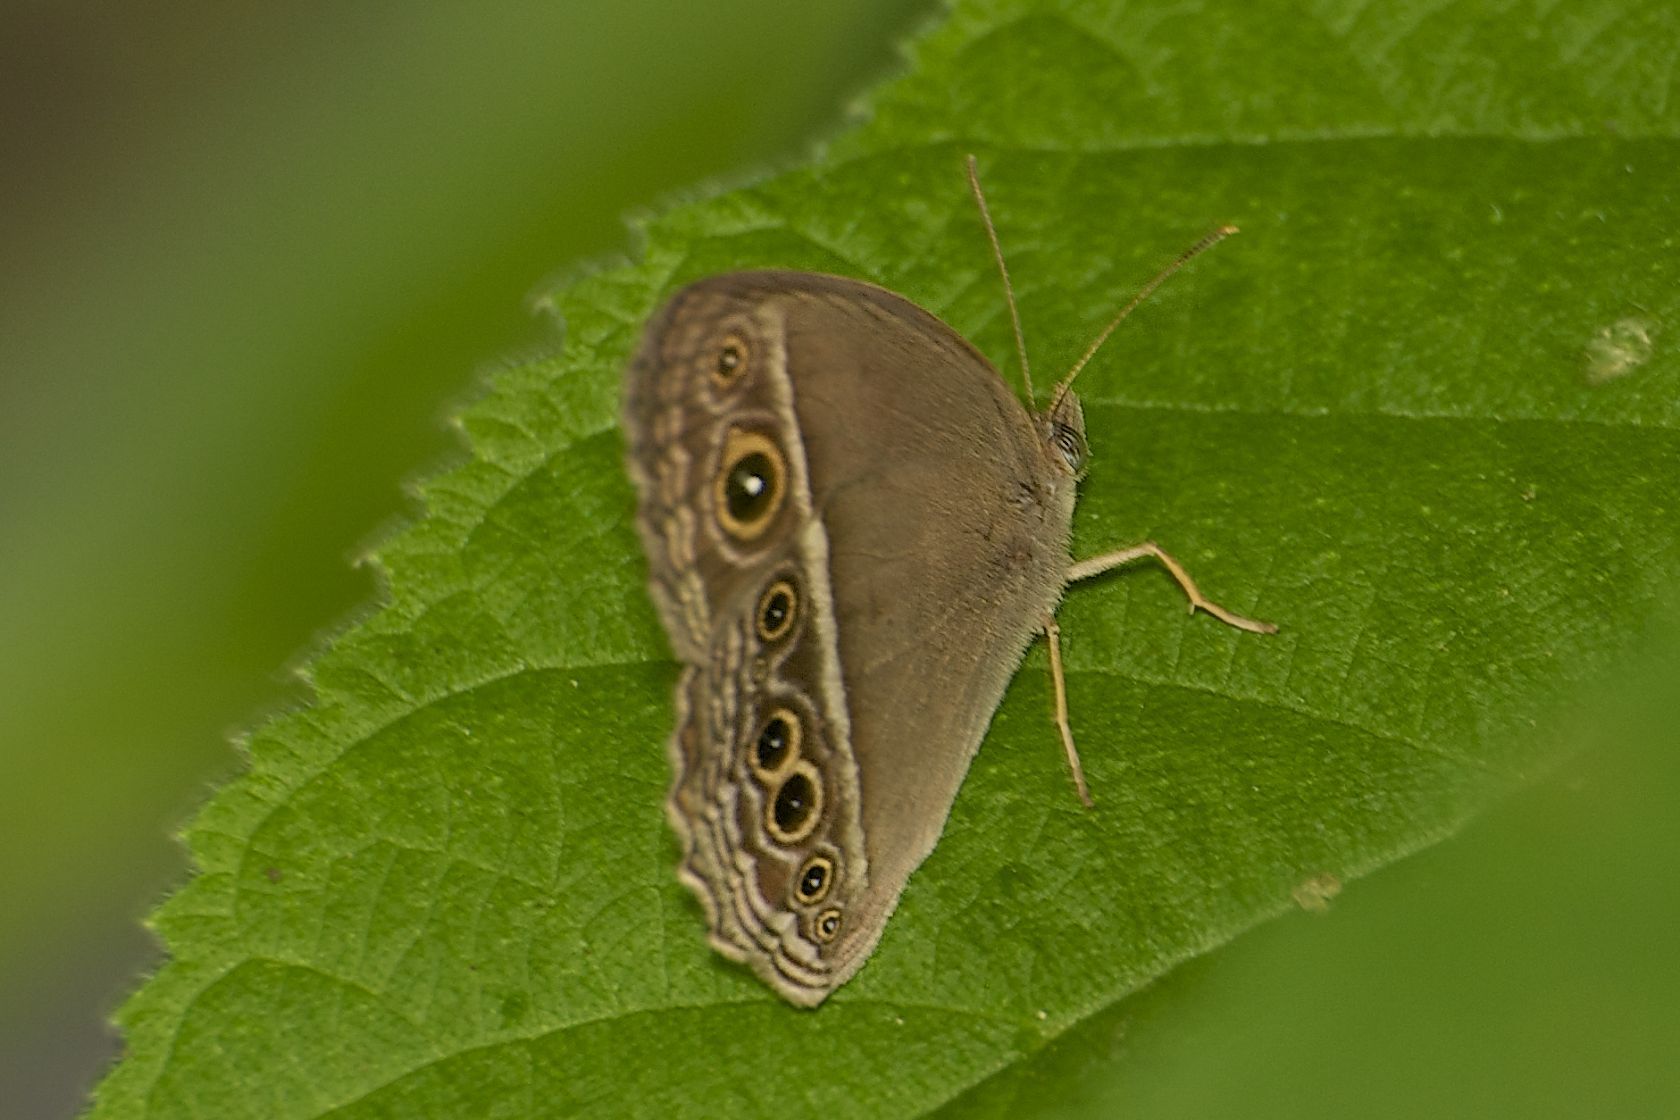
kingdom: Animalia
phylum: Arthropoda
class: Insecta
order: Lepidoptera
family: Nymphalidae
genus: Mycalesis
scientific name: Mycalesis mineus
